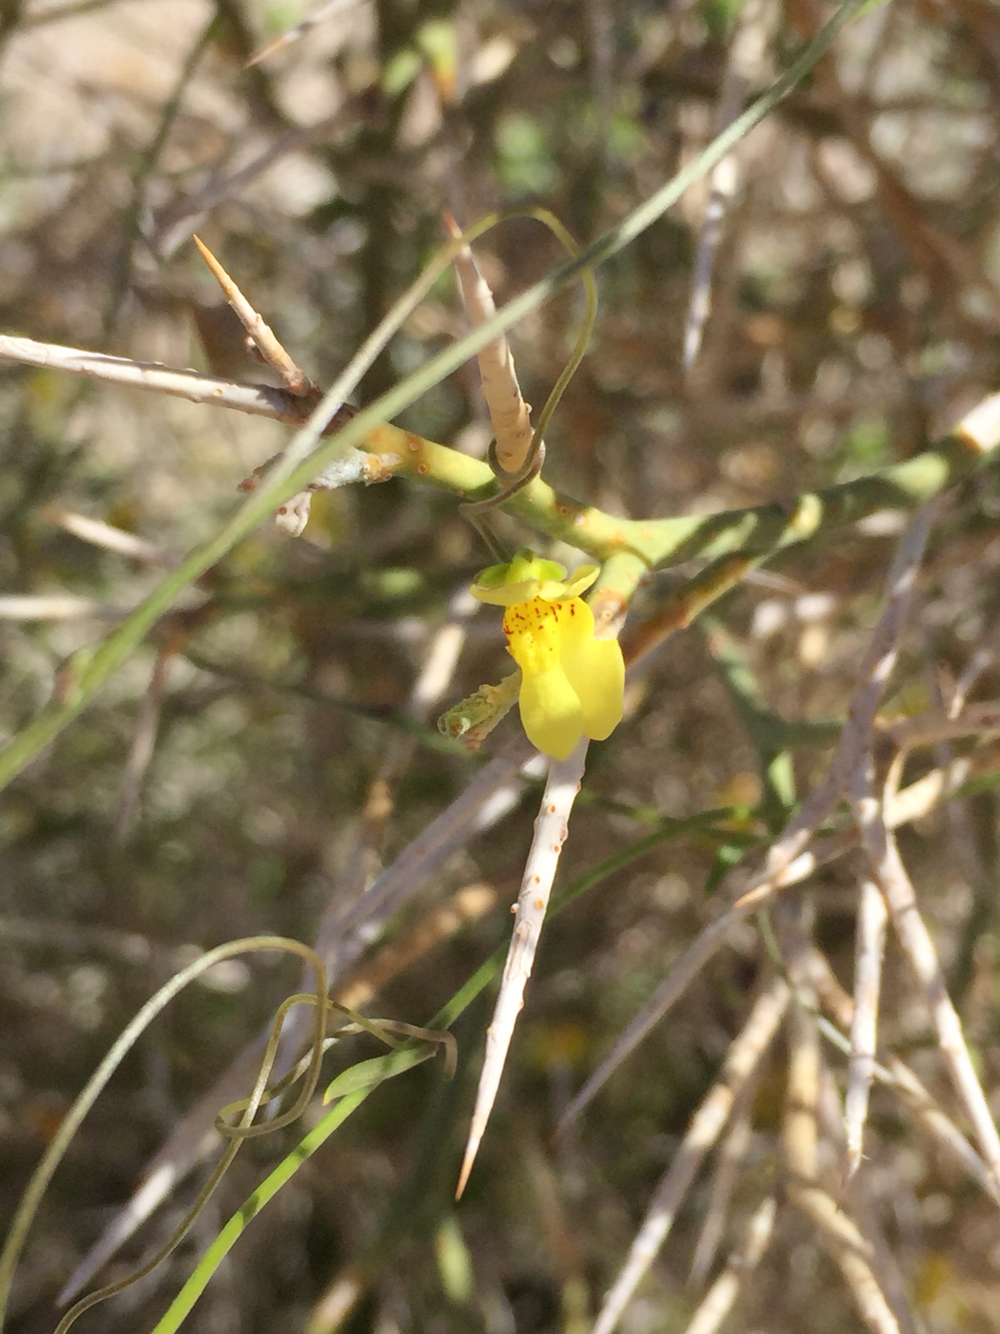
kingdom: Plantae
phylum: Tracheophyta
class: Magnoliopsida
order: Lamiales
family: Plantaginaceae
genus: Neogaerrhinum
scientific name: Neogaerrhinum filipes
